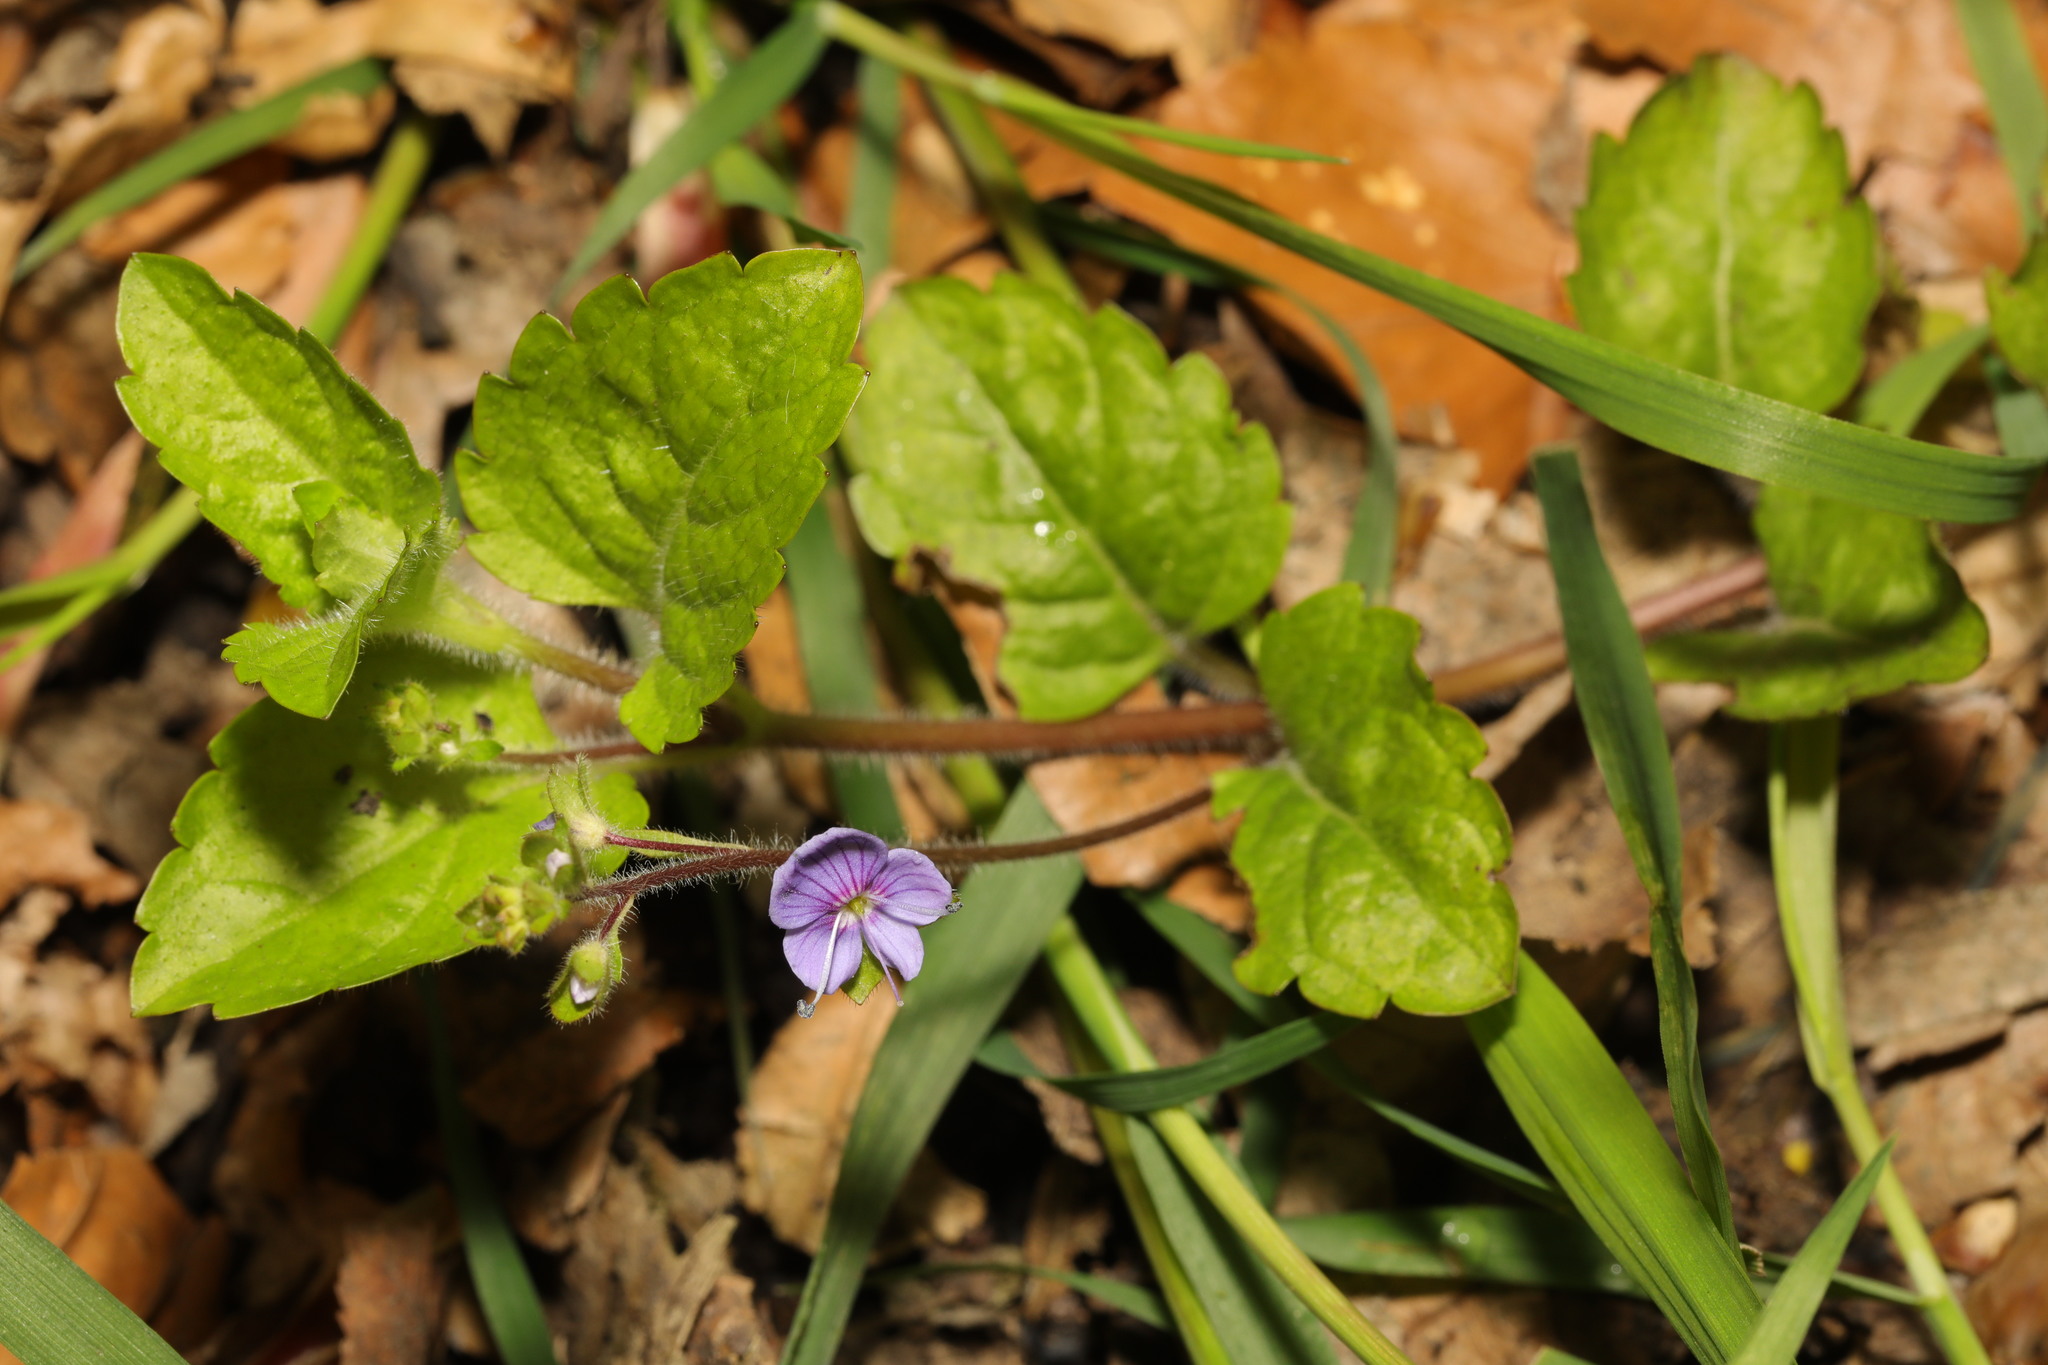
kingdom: Plantae
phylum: Tracheophyta
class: Magnoliopsida
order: Lamiales
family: Plantaginaceae
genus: Veronica
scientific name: Veronica montana
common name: Wood speedwell
